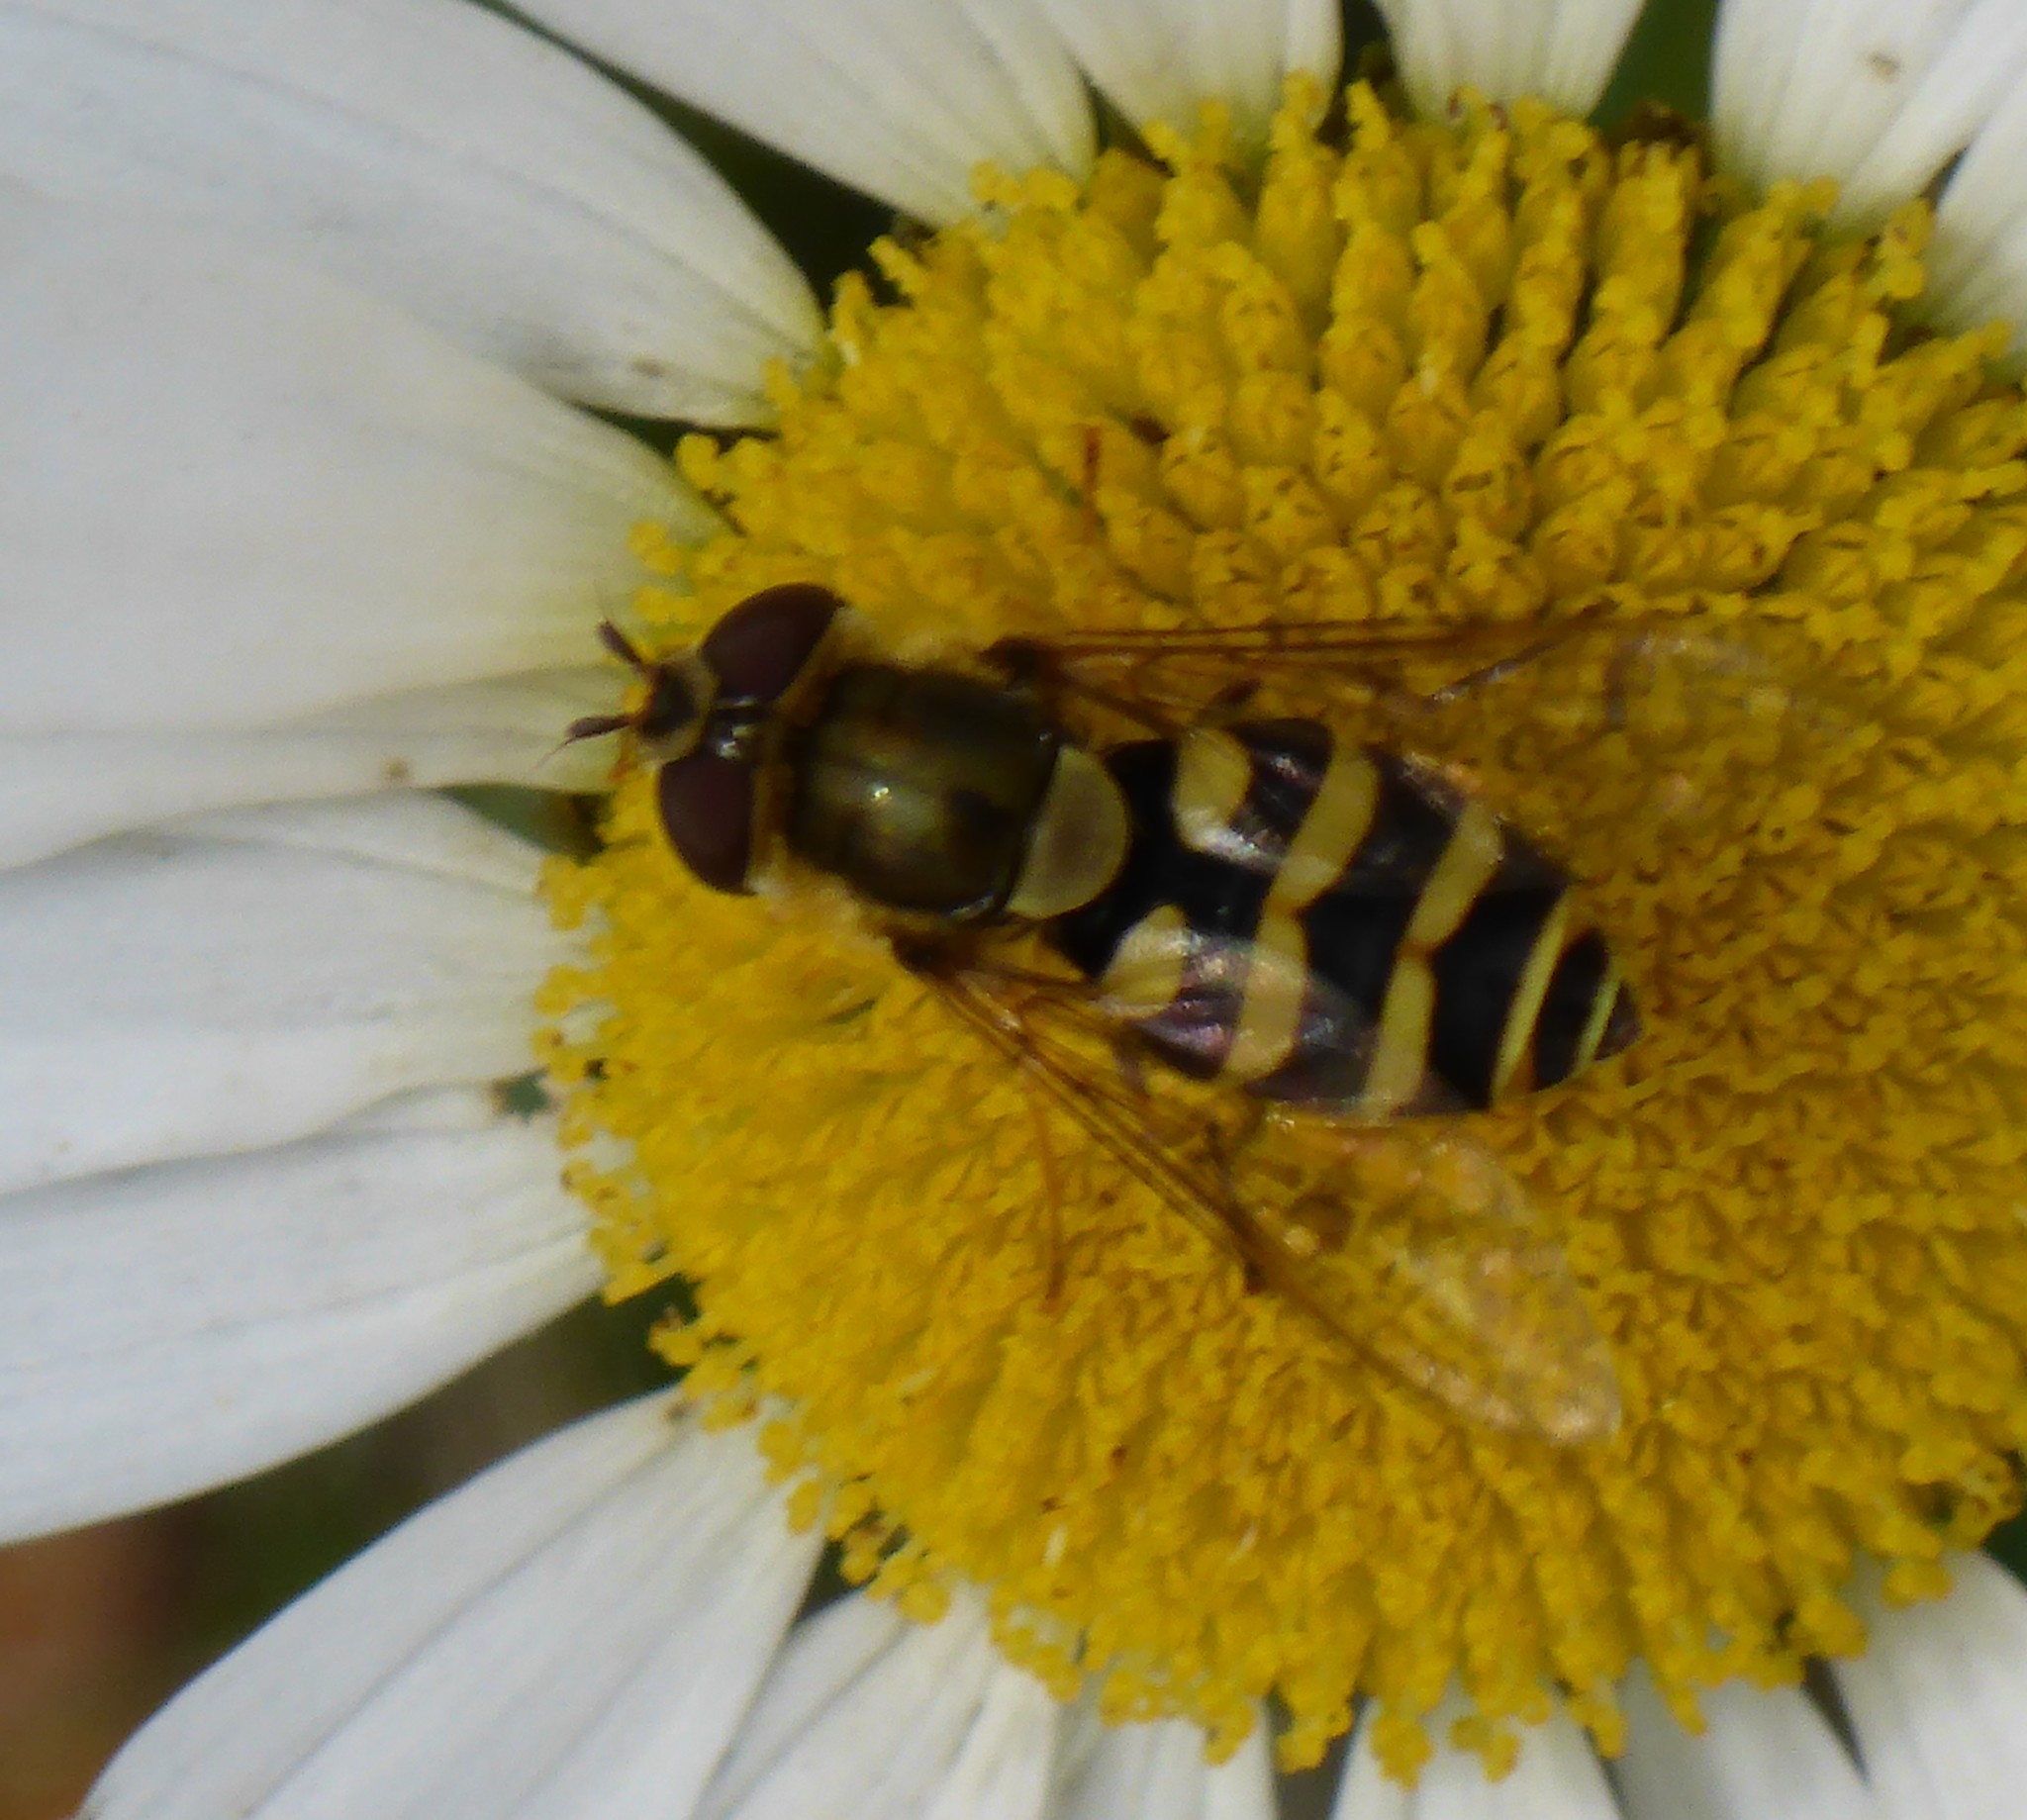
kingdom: Animalia
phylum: Arthropoda
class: Insecta
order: Diptera
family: Syrphidae
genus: Syrphus
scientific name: Syrphus
